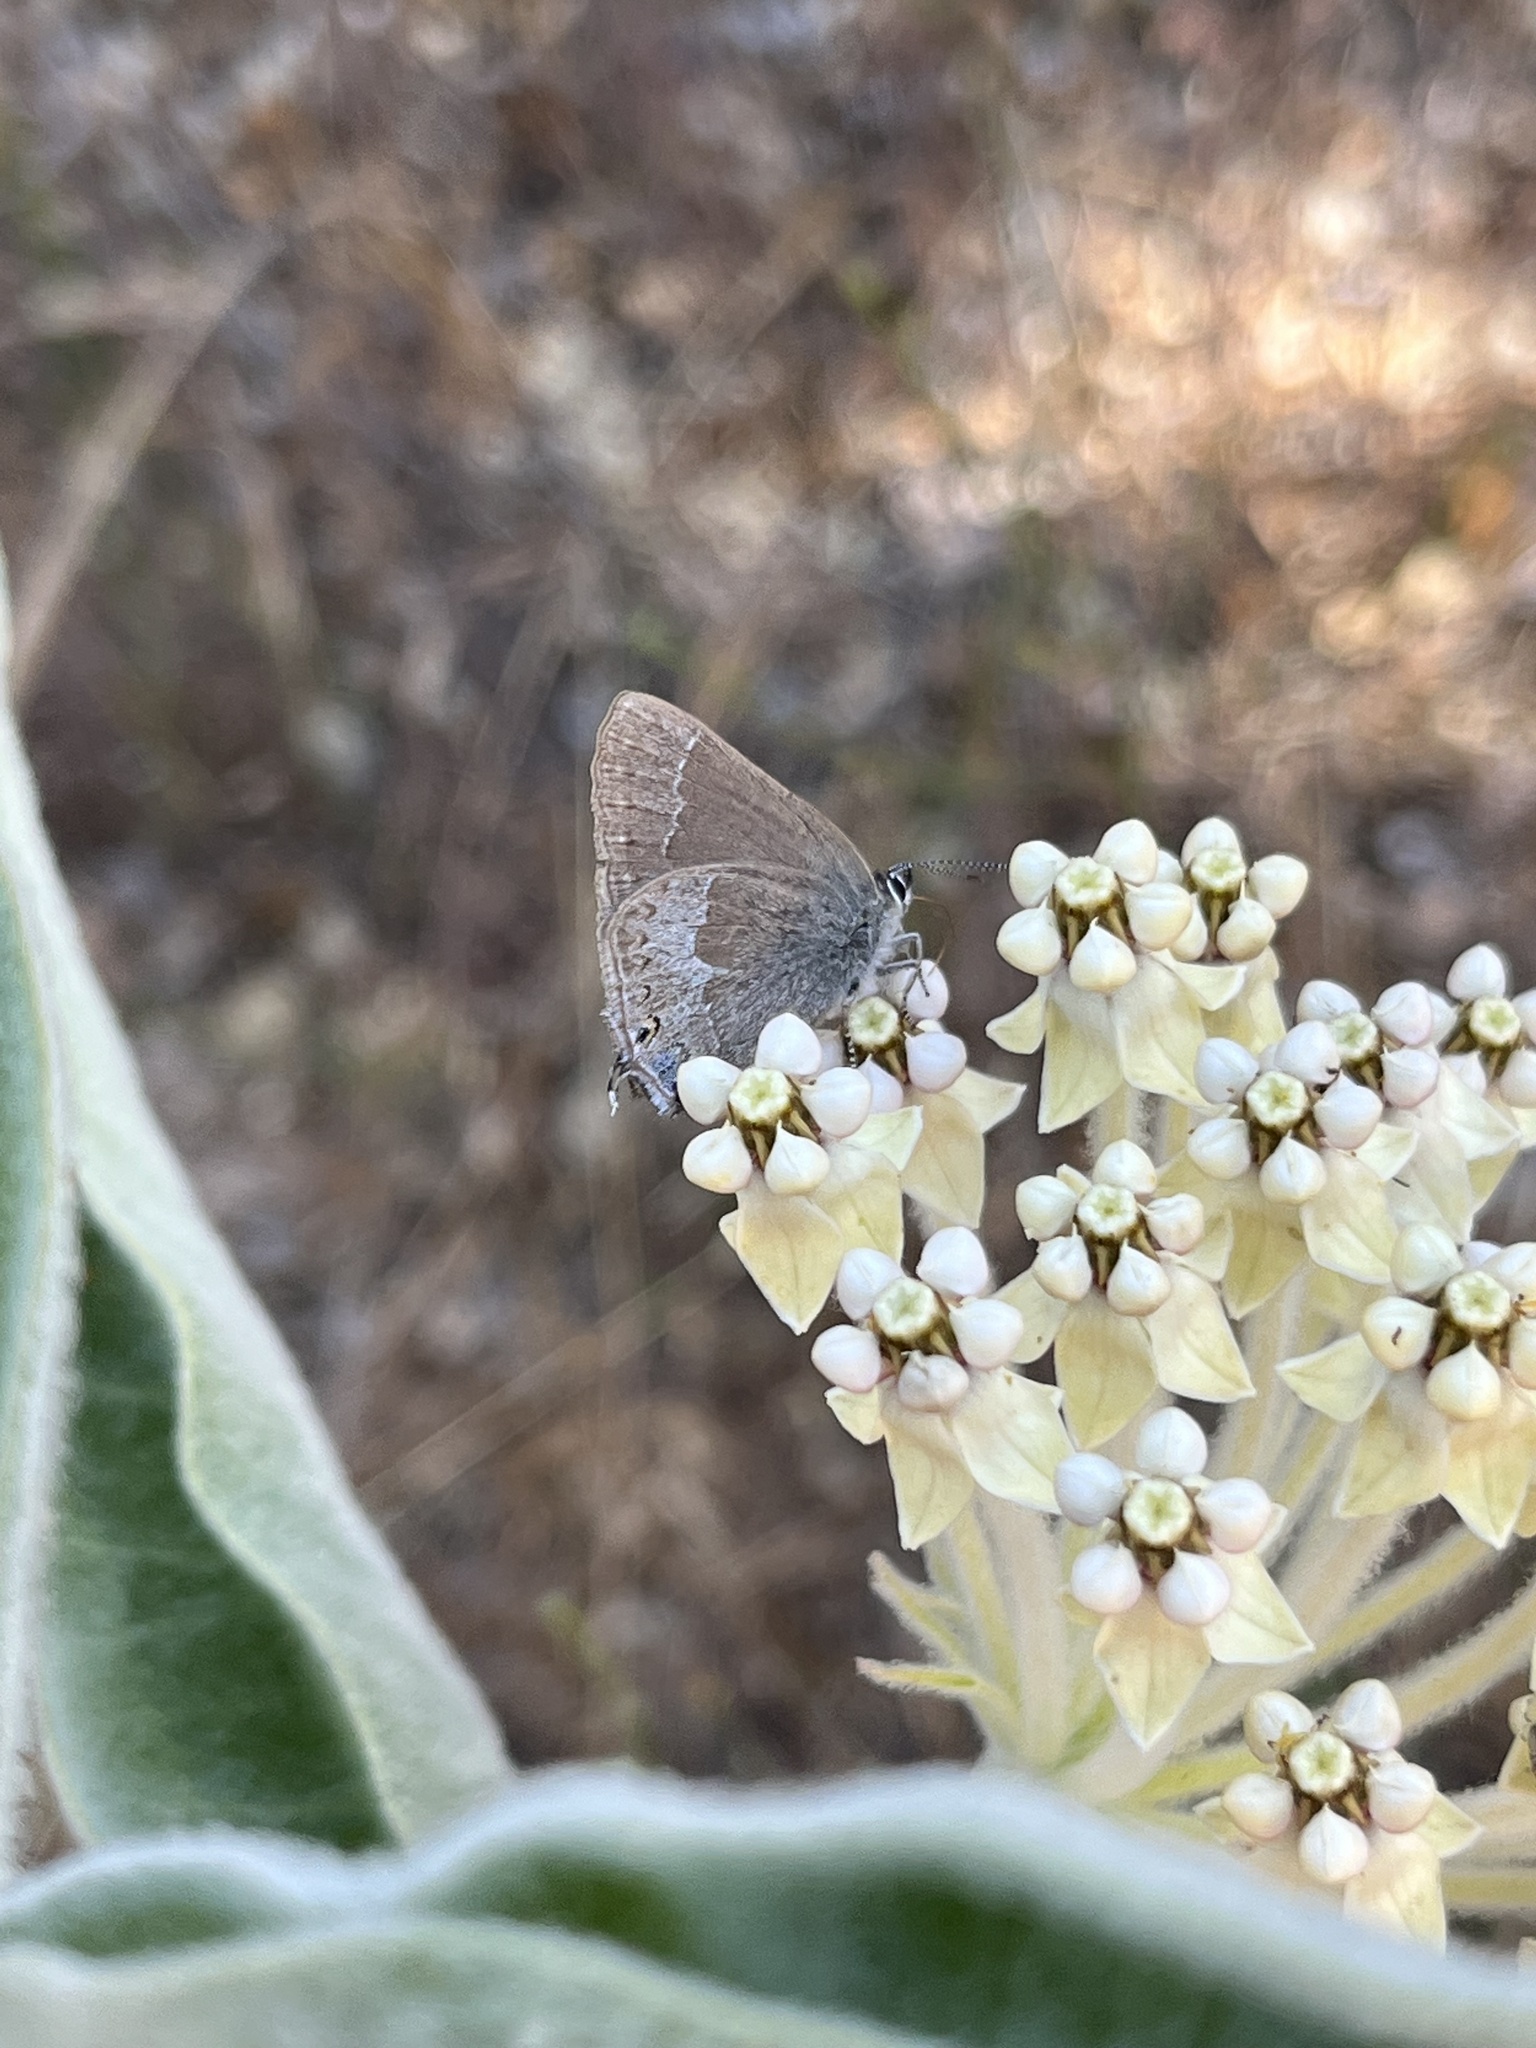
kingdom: Animalia
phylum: Arthropoda
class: Insecta
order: Lepidoptera
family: Lycaenidae
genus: Thecla
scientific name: Thecla tetra
